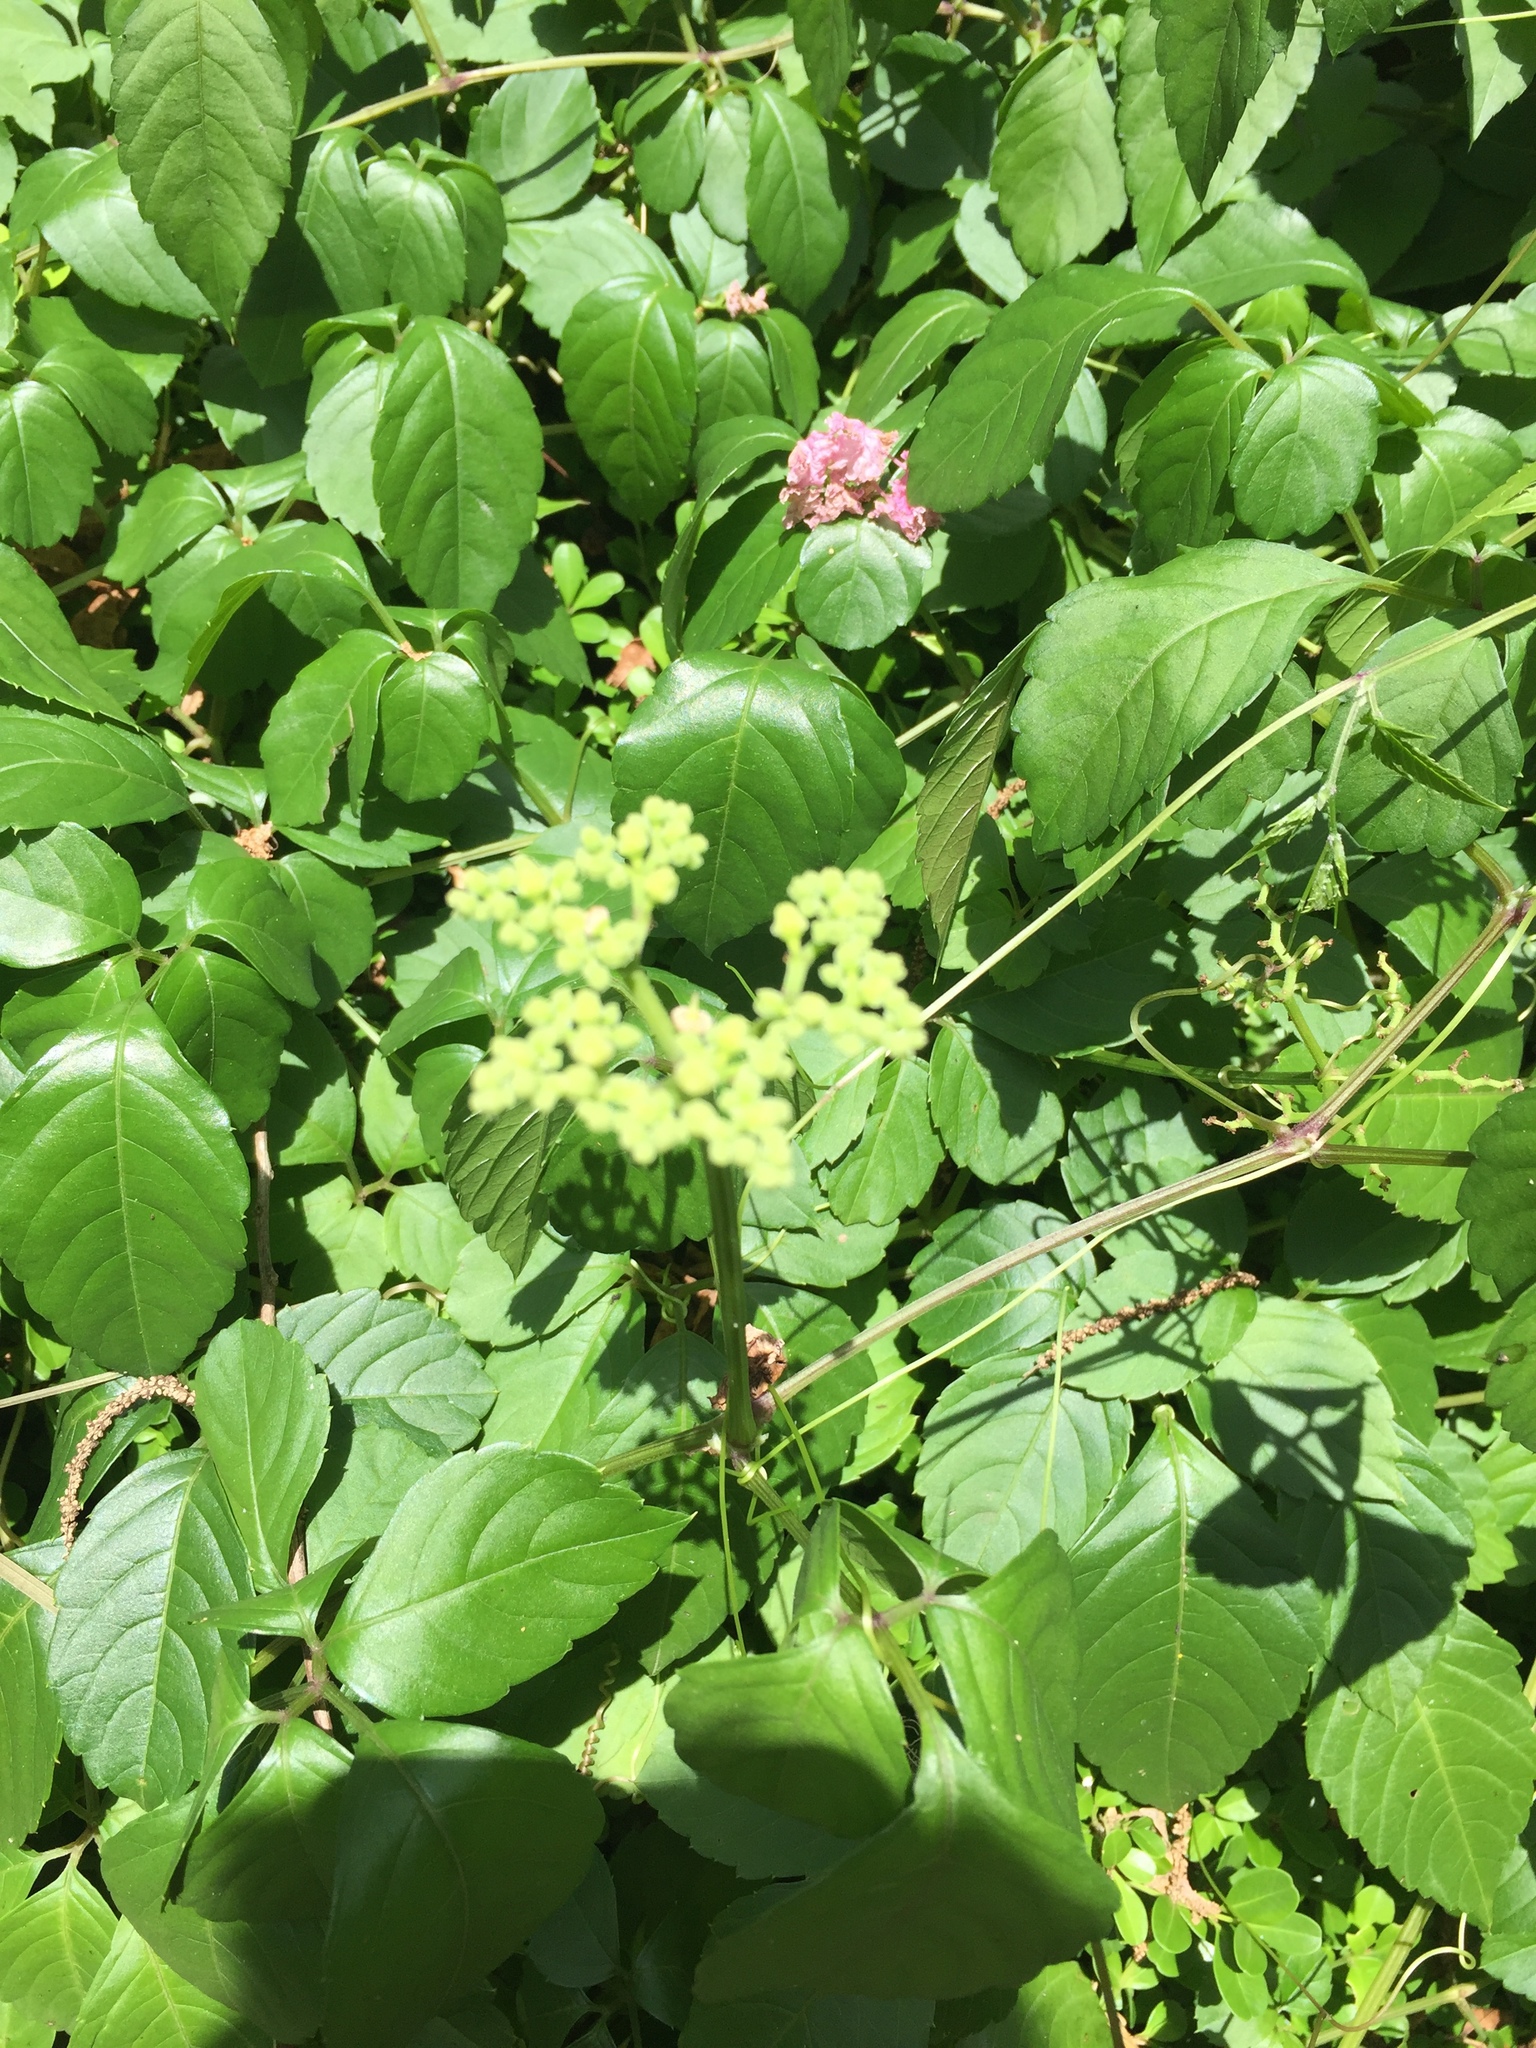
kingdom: Plantae
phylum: Tracheophyta
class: Magnoliopsida
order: Vitales
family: Vitaceae
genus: Causonis
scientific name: Causonis japonica
